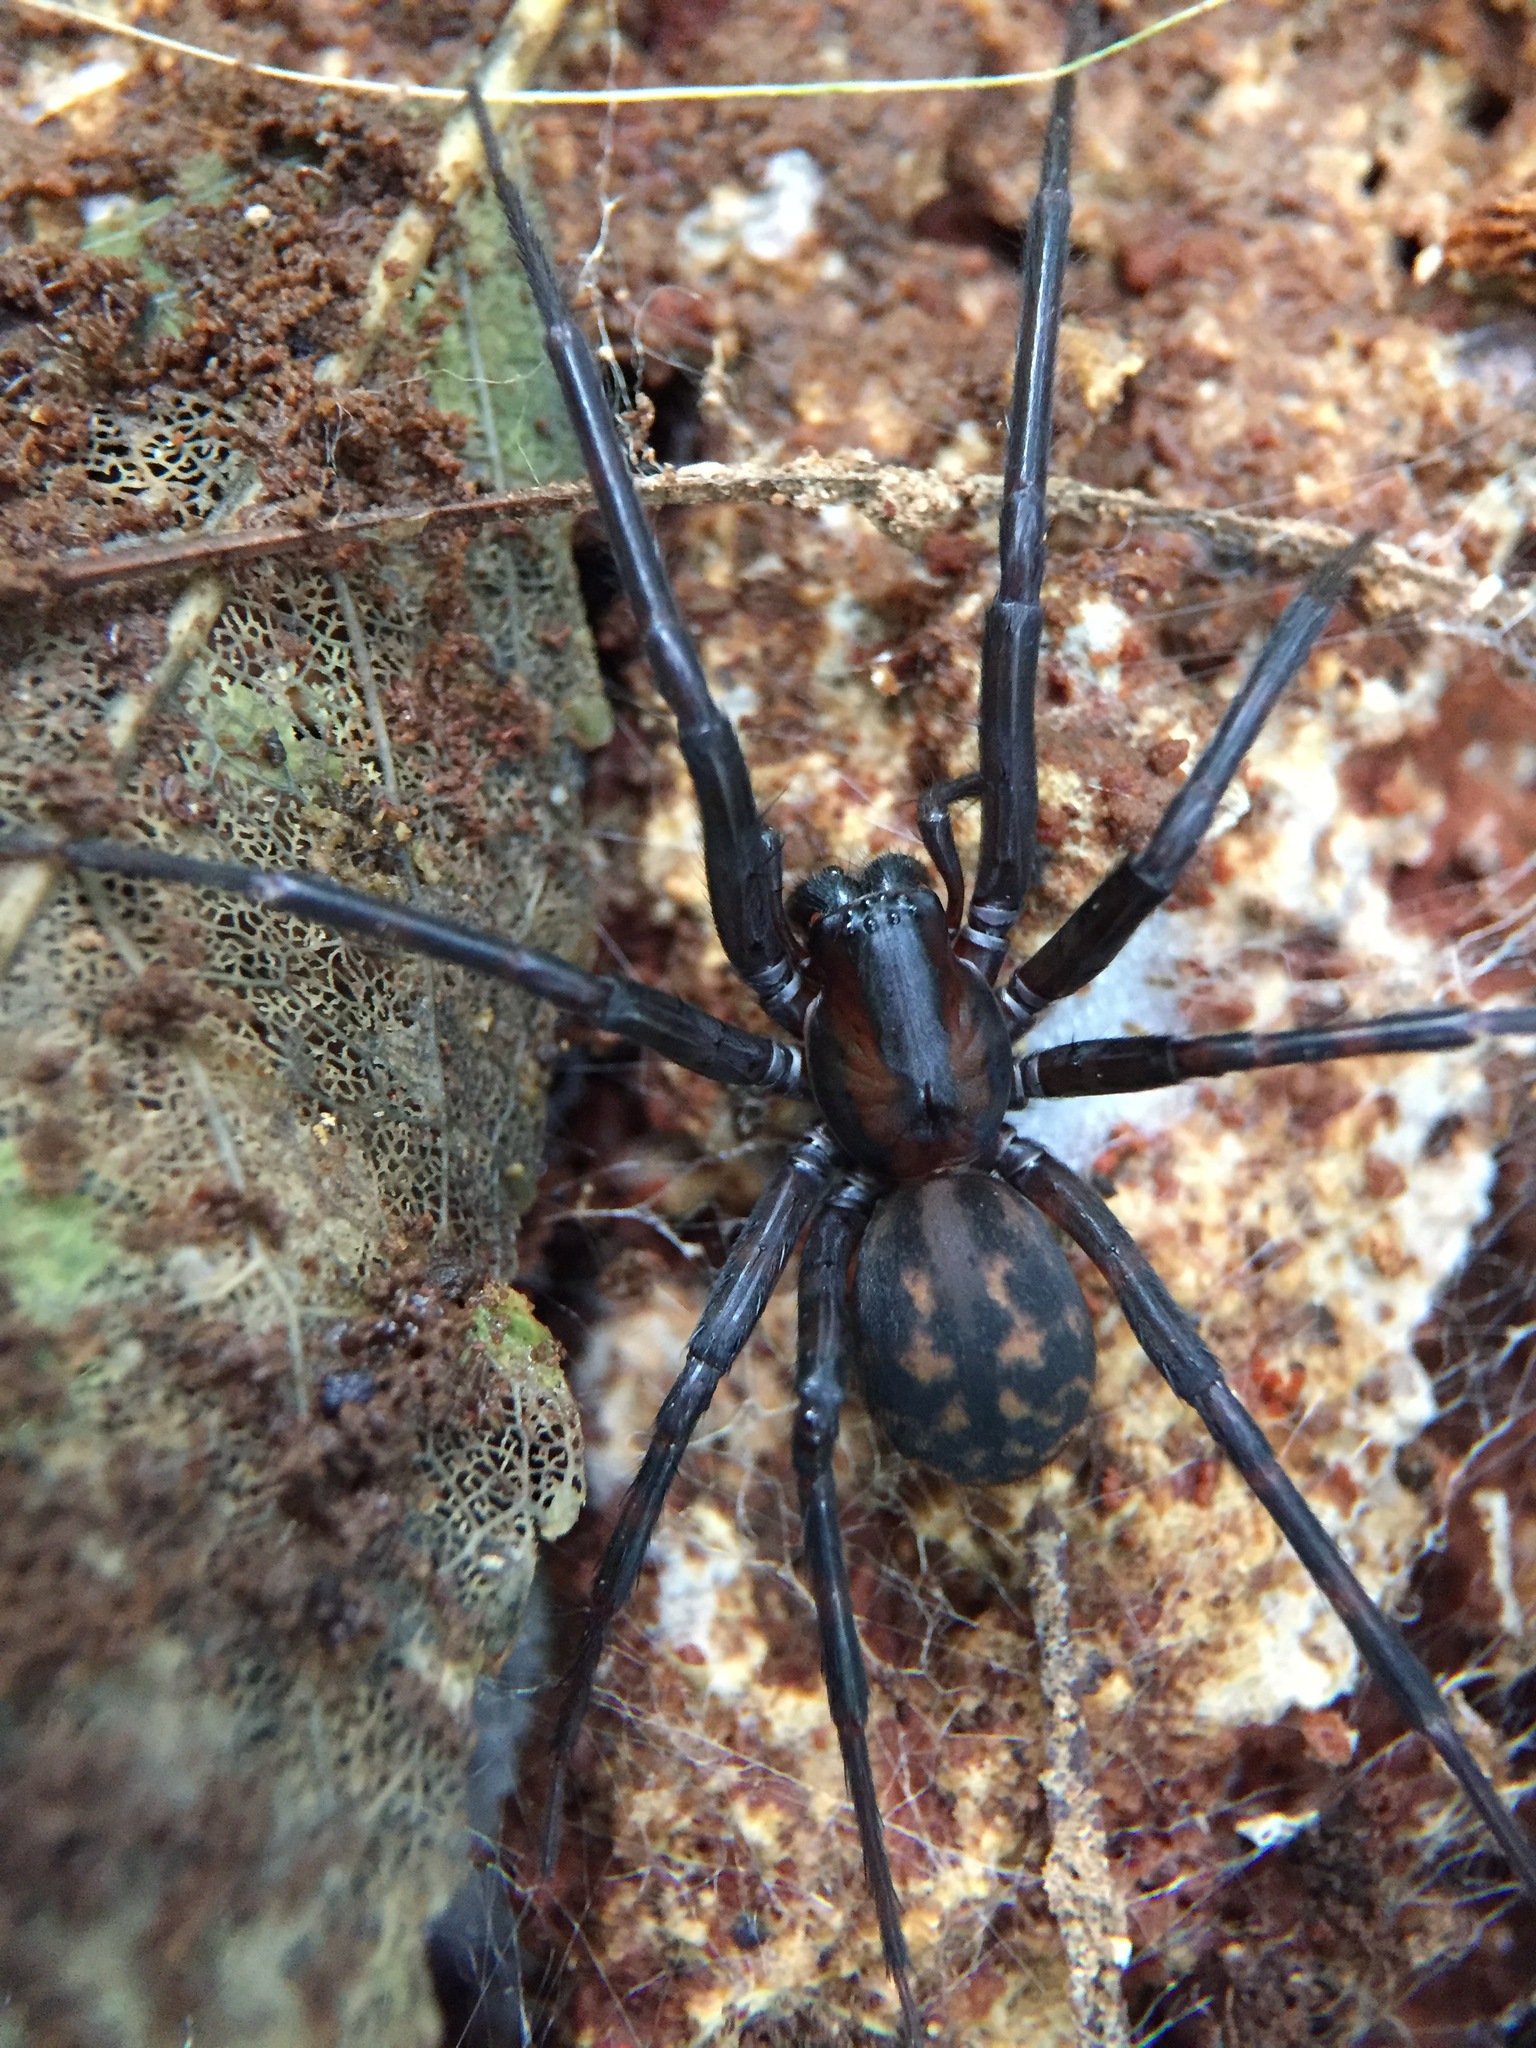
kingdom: Animalia
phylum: Arthropoda
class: Arachnida
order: Araneae
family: Desidae
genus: Cambridgea
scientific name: Cambridgea plagiata
